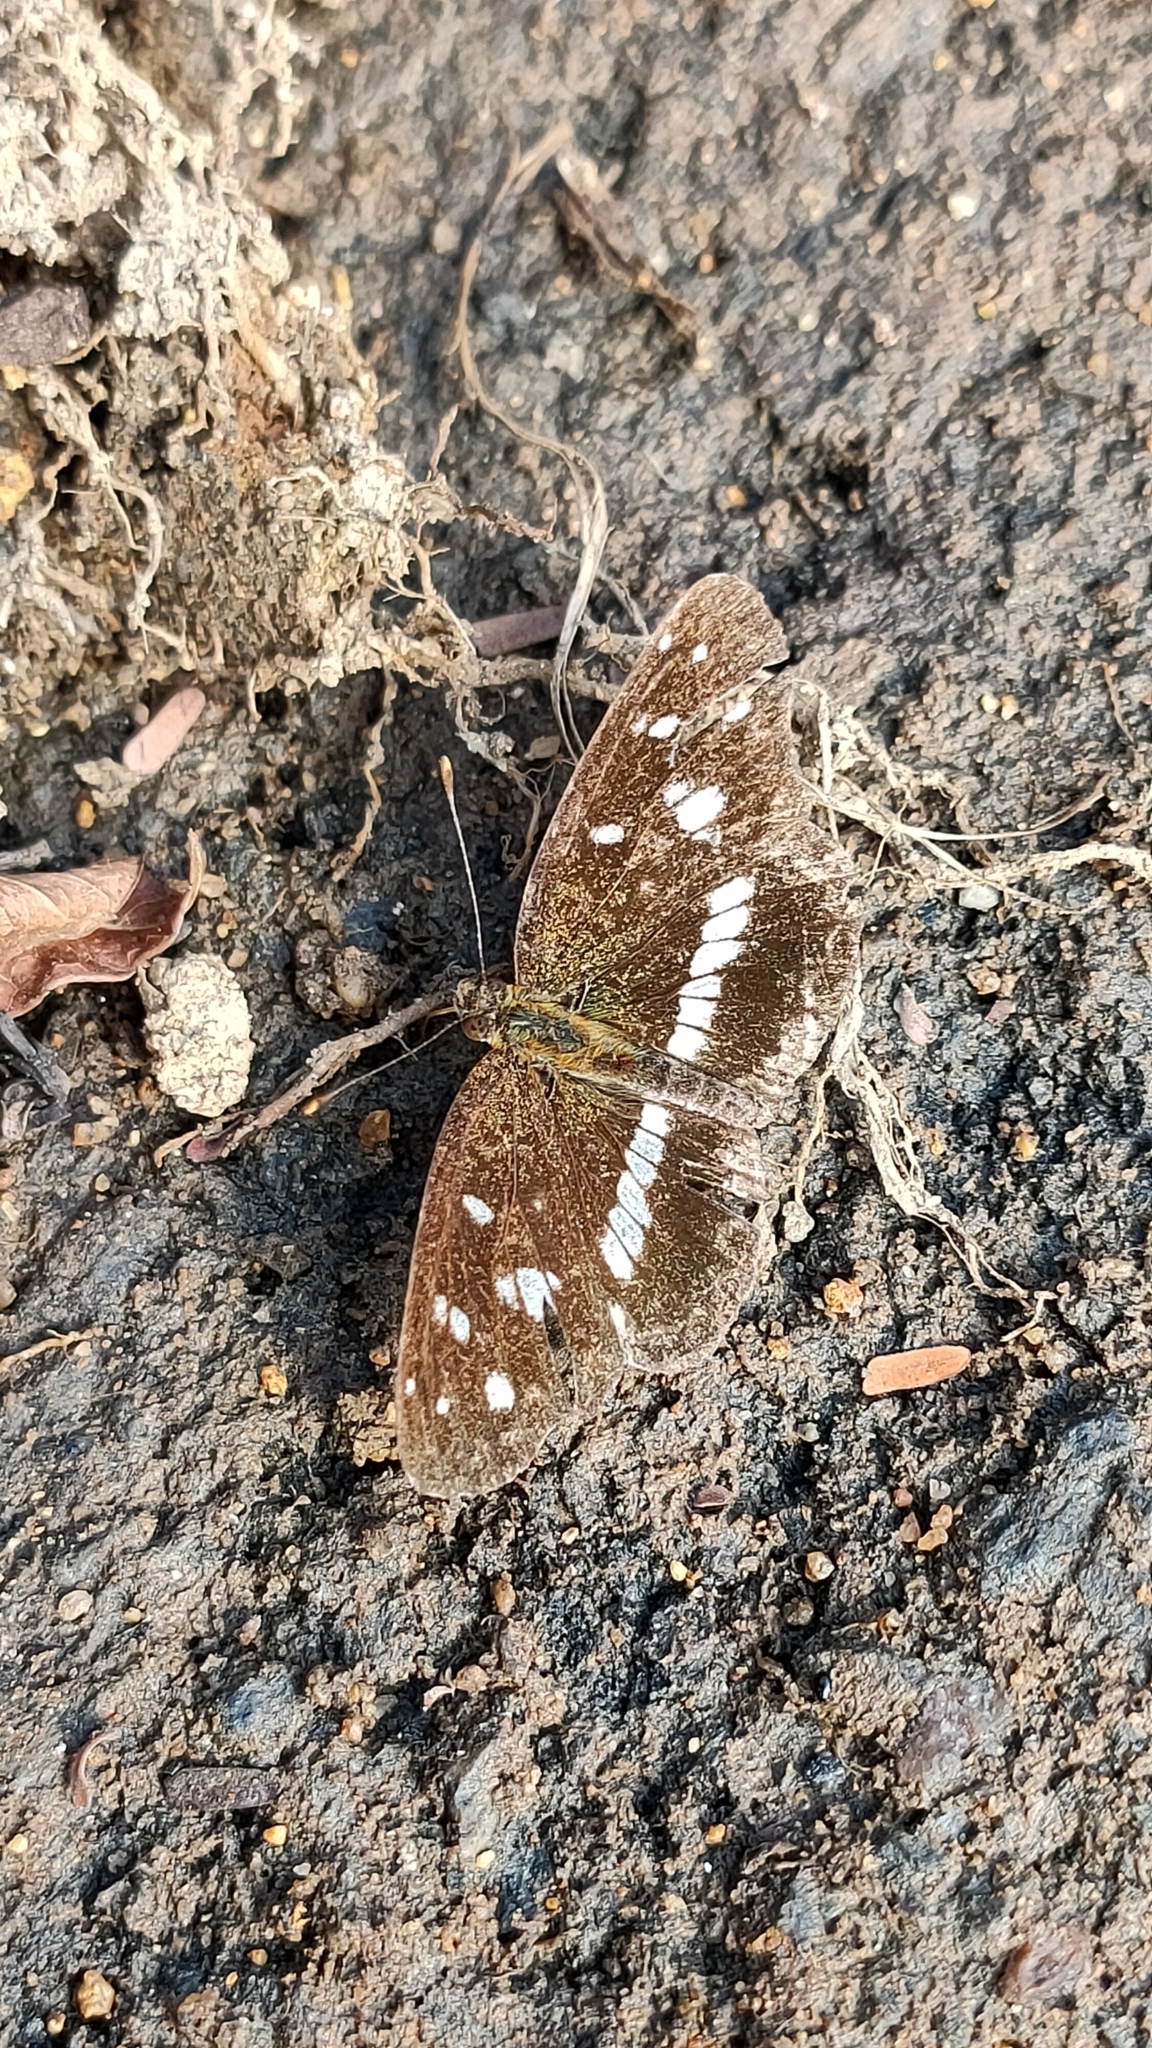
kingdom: Animalia
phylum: Arthropoda
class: Insecta
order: Lepidoptera
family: Nymphalidae
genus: Ortilia
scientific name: Ortilia ithra
